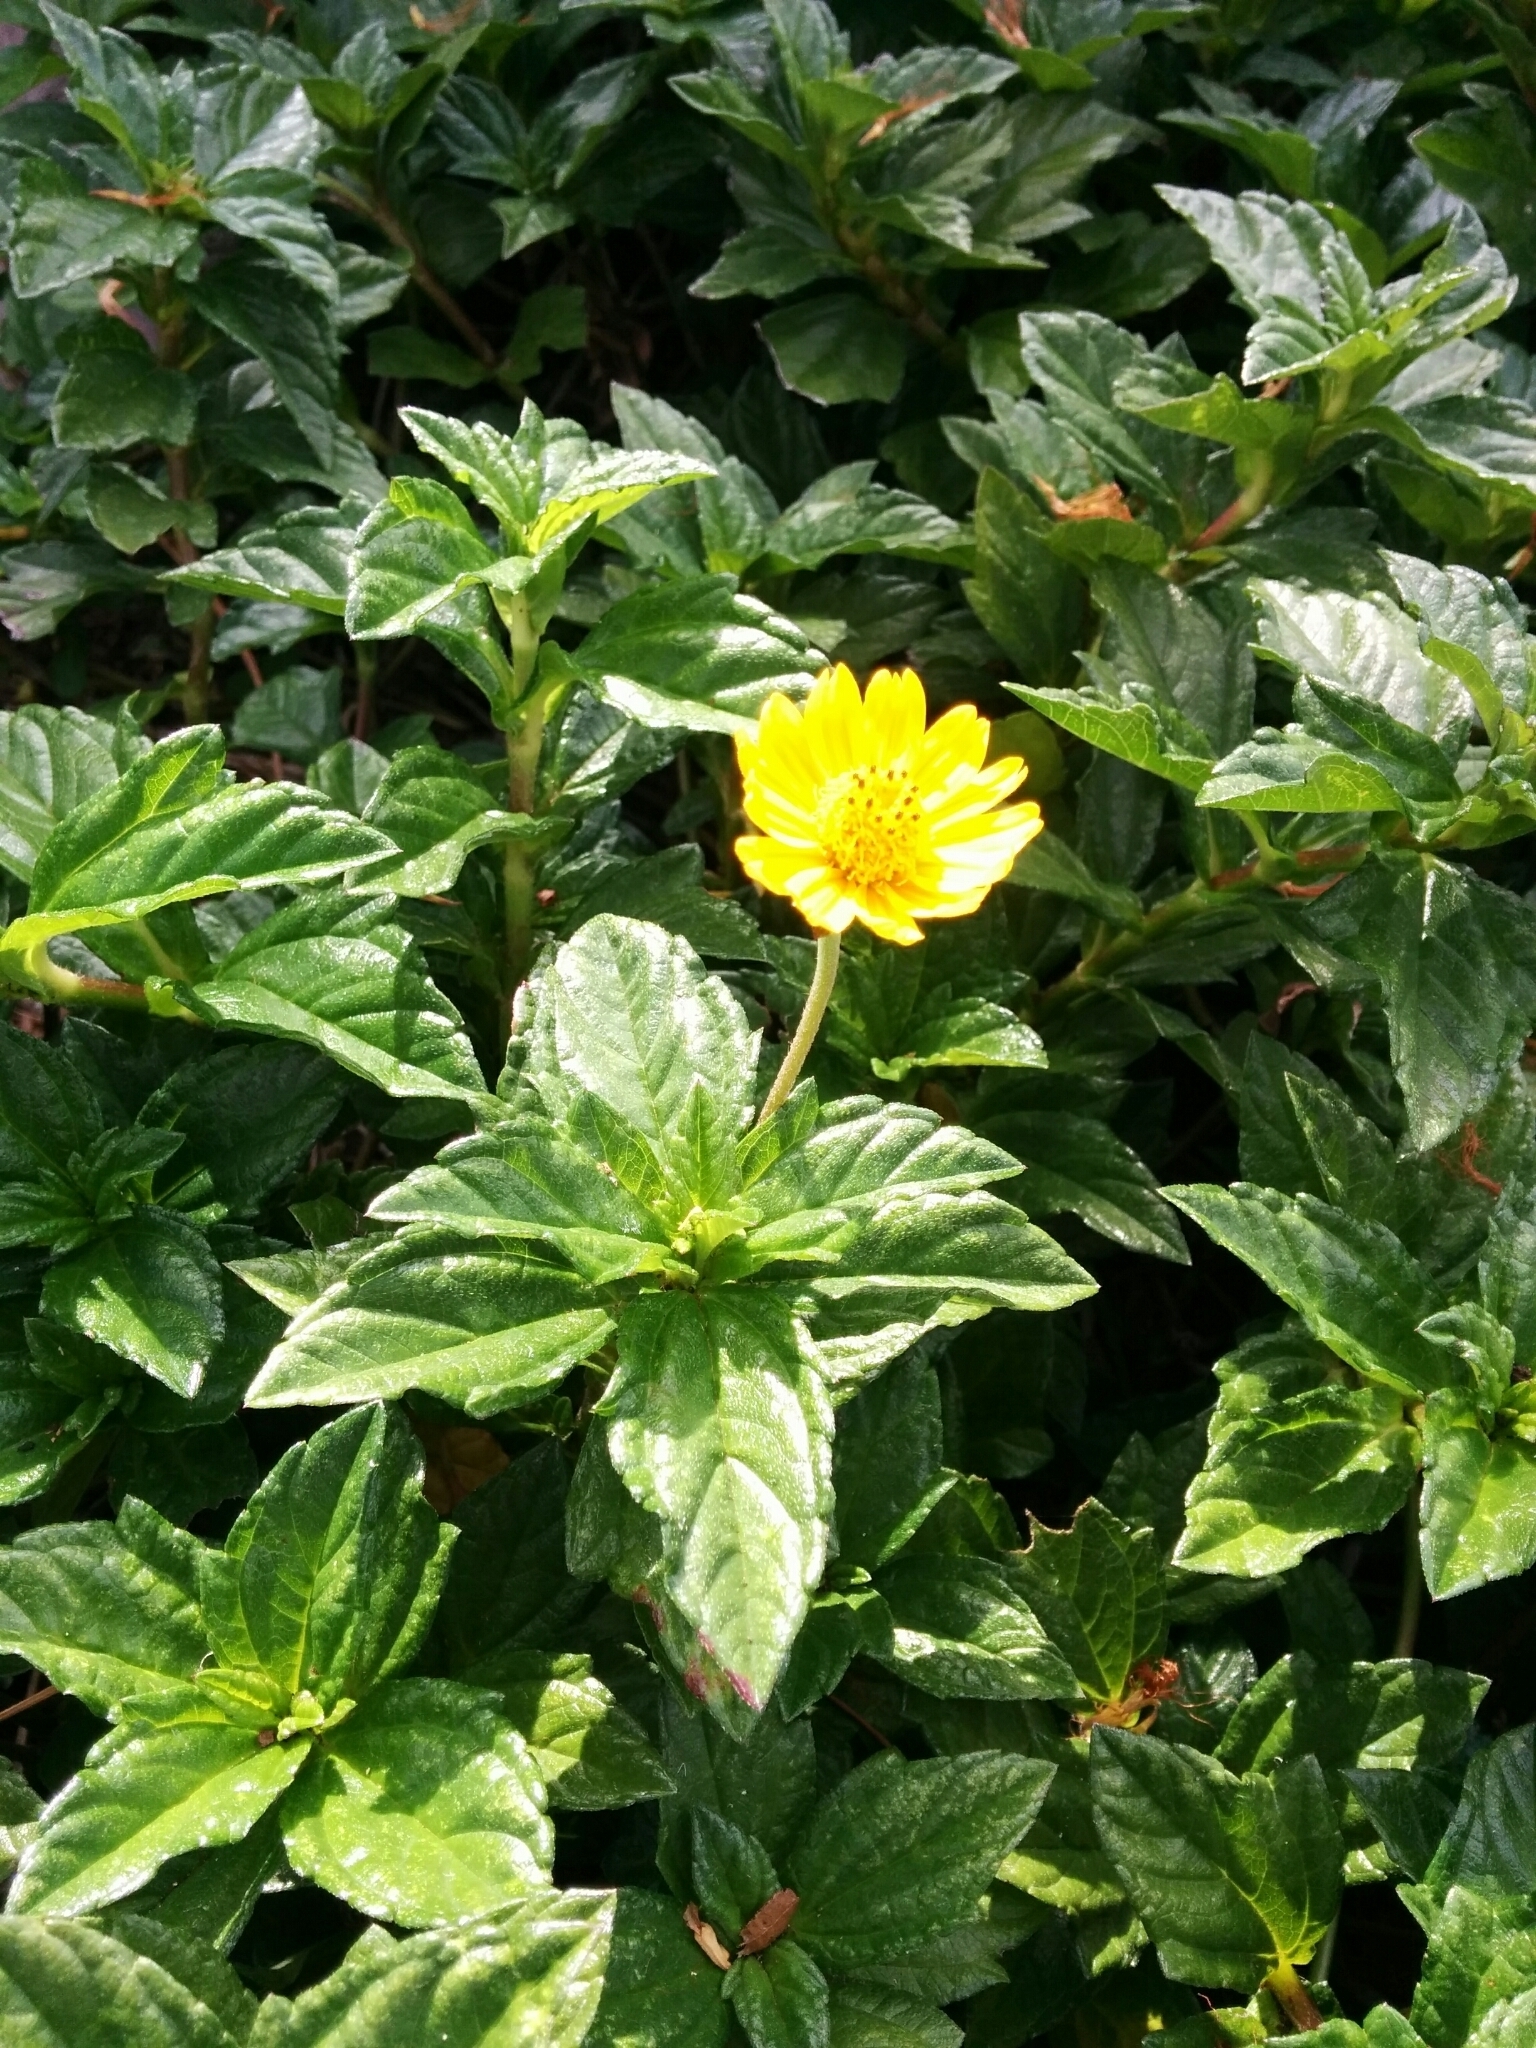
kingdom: Plantae
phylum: Tracheophyta
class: Magnoliopsida
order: Asterales
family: Asteraceae
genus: Sphagneticola
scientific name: Sphagneticola trilobata
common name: Bay biscayne creeping-oxeye
